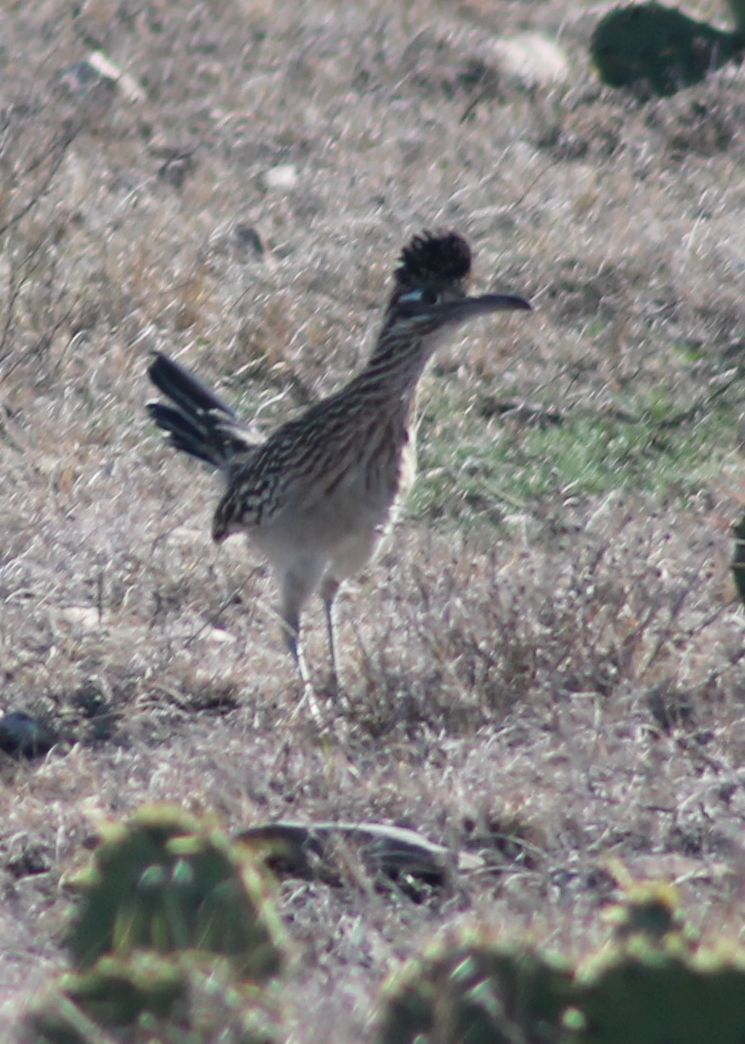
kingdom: Animalia
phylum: Chordata
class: Aves
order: Cuculiformes
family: Cuculidae
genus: Geococcyx
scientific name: Geococcyx californianus
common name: Greater roadrunner
